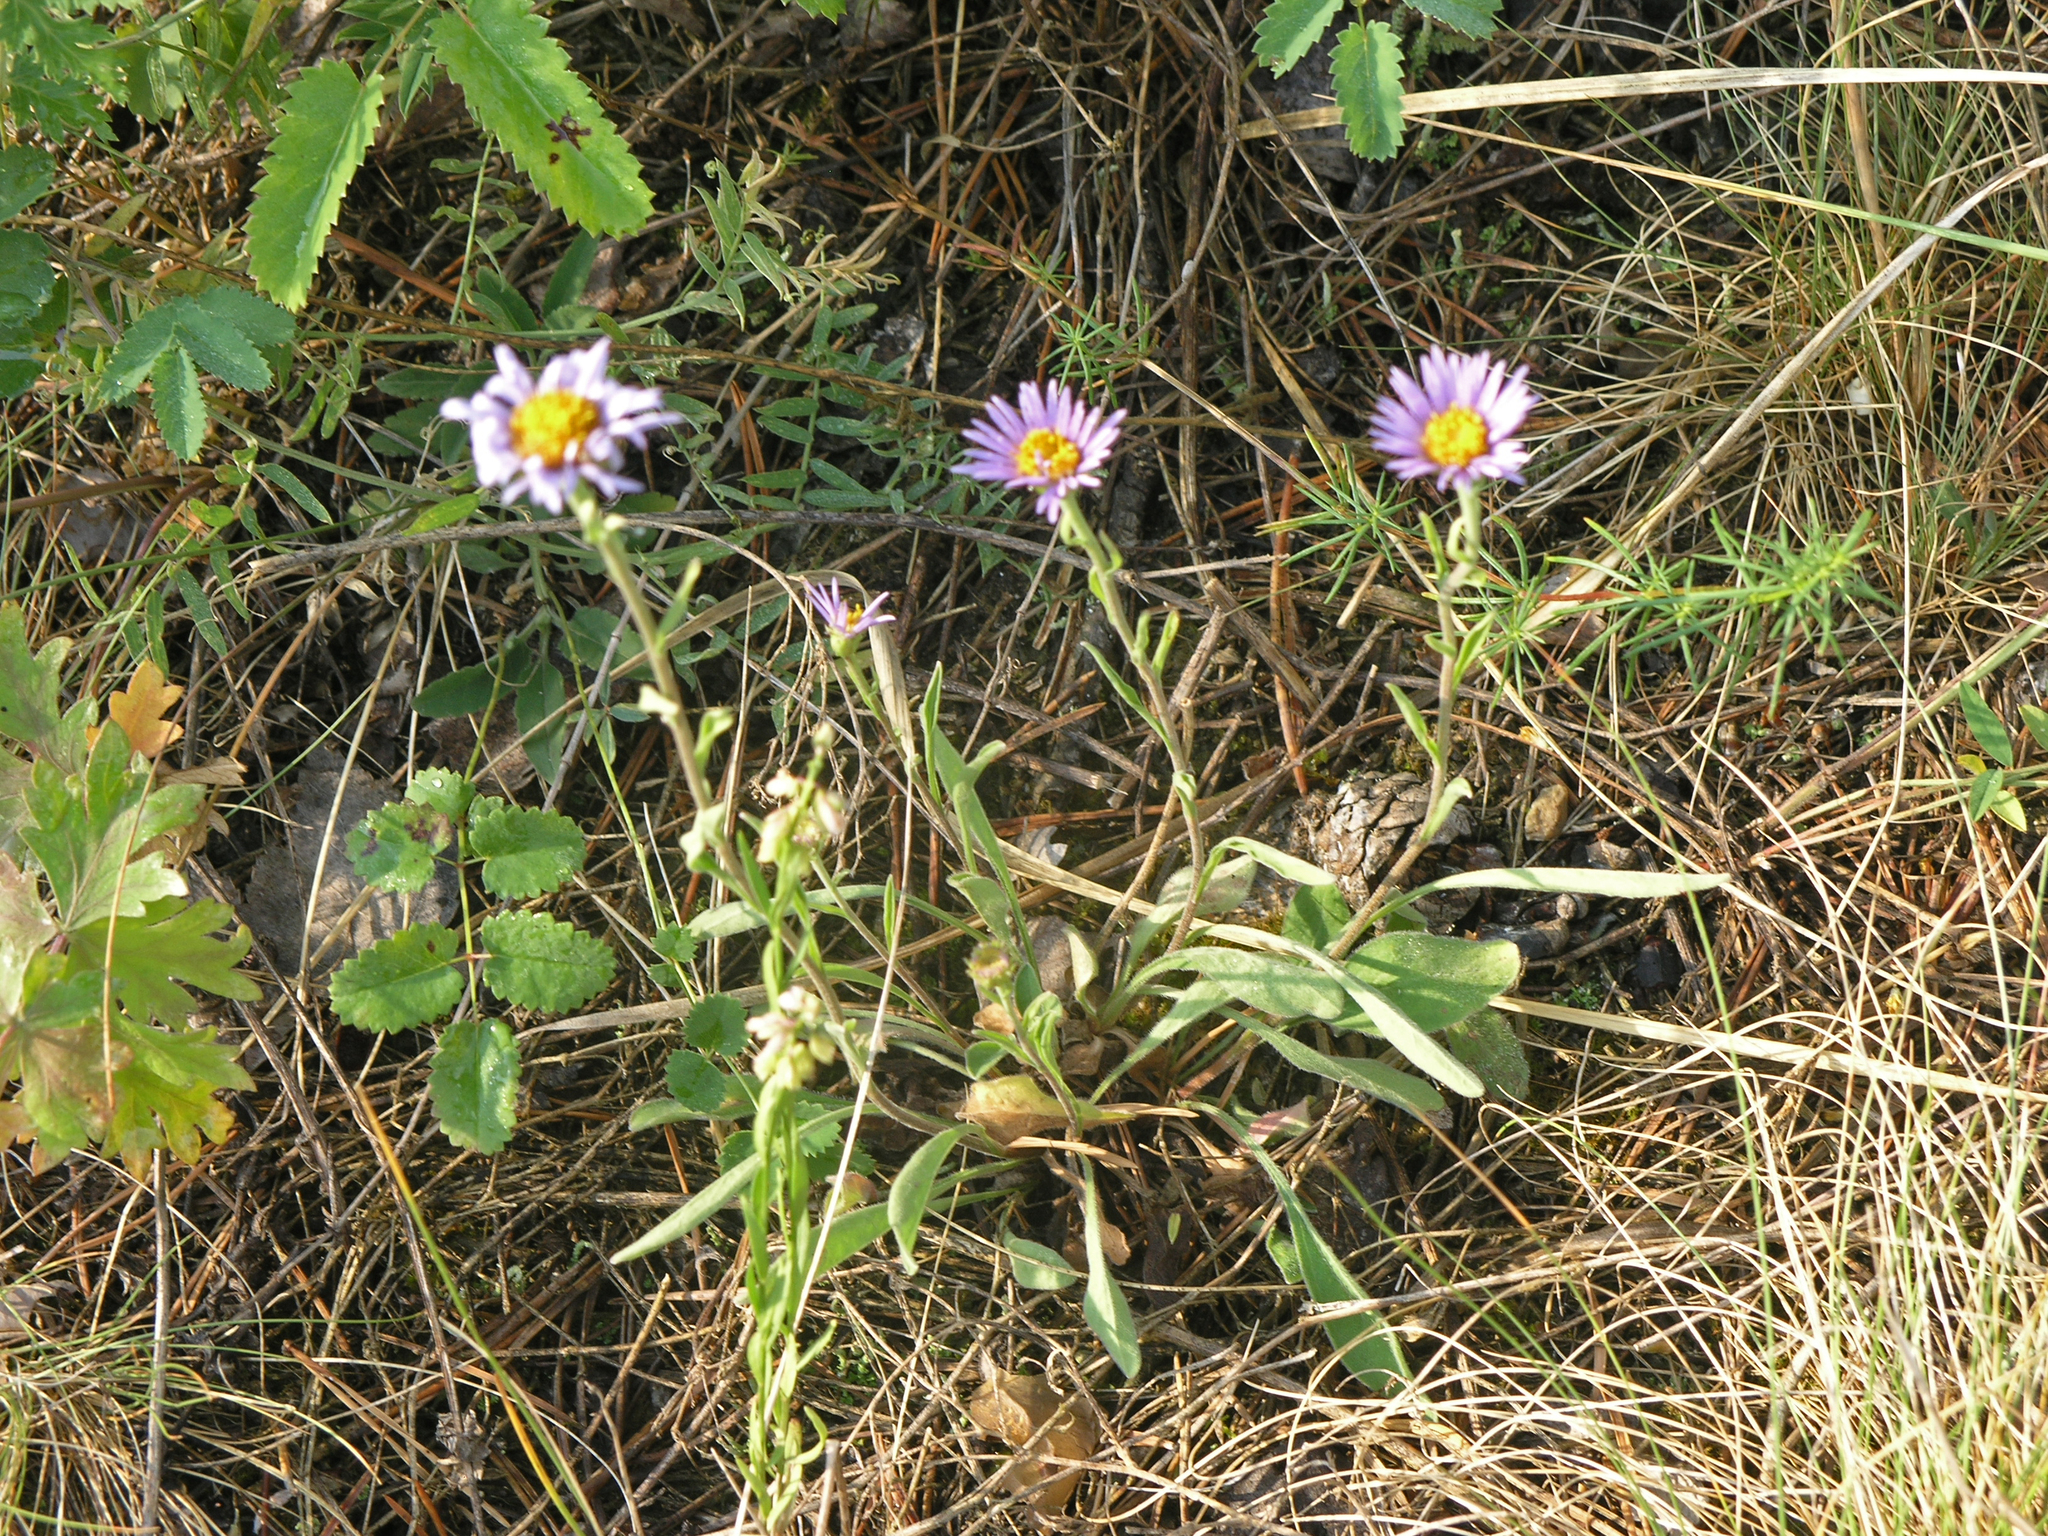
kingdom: Plantae
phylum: Tracheophyta
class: Magnoliopsida
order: Asterales
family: Asteraceae
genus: Aster
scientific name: Aster alpinus
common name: Alpine aster
